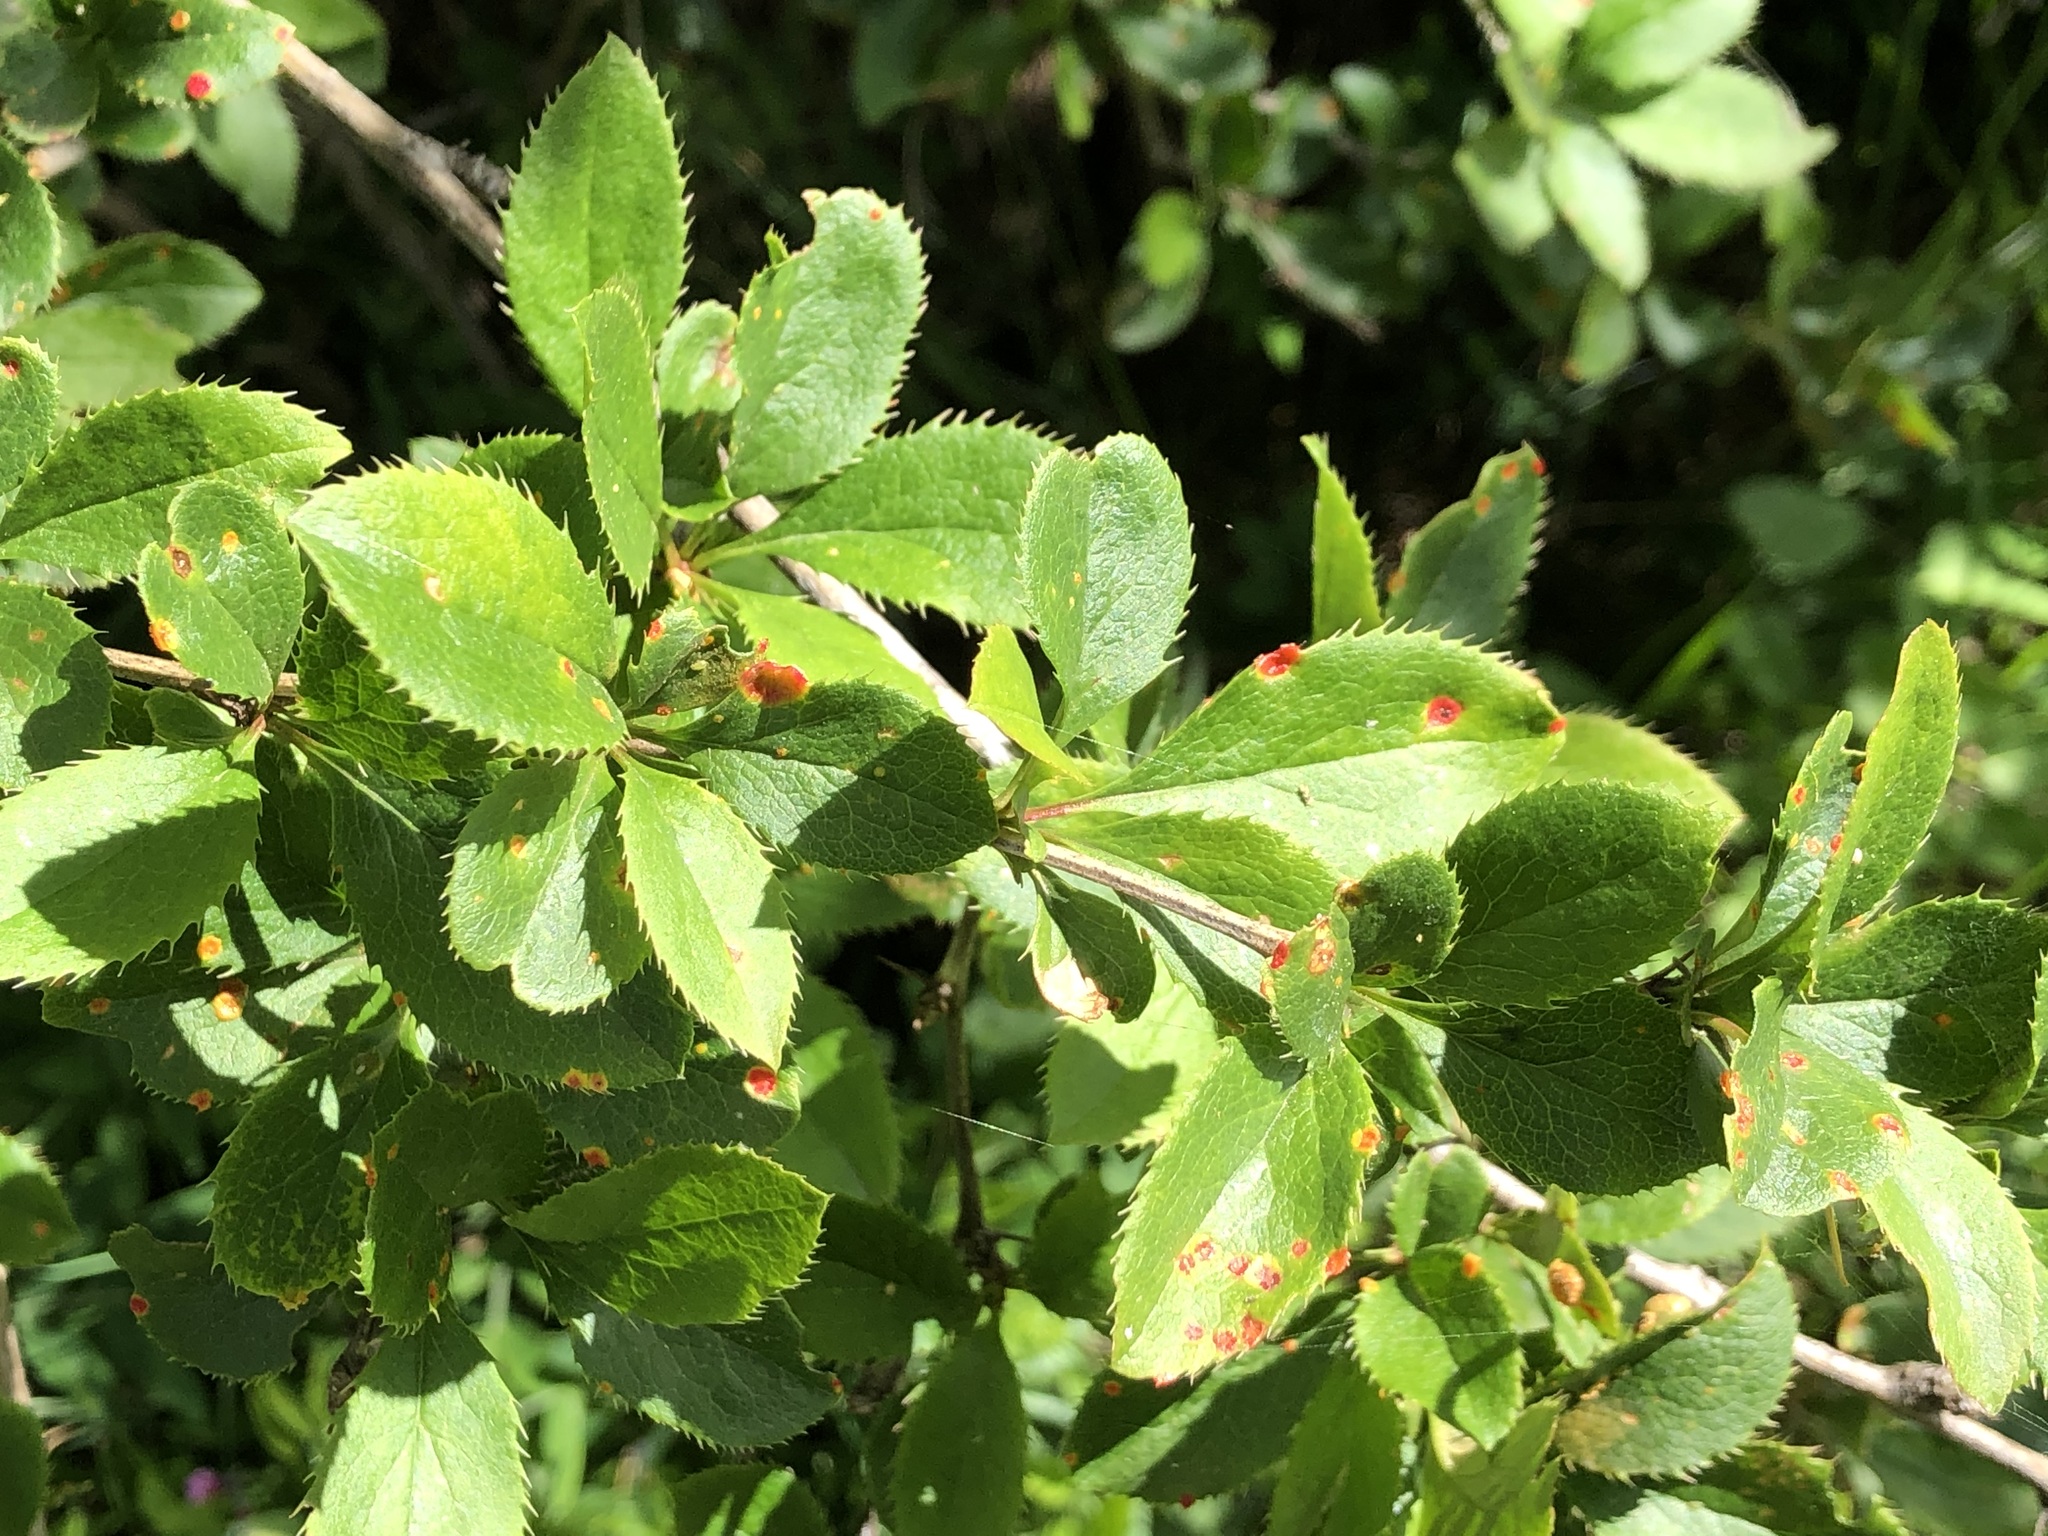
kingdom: Plantae
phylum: Tracheophyta
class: Magnoliopsida
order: Ranunculales
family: Berberidaceae
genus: Berberis
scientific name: Berberis vulgaris
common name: Barberry
